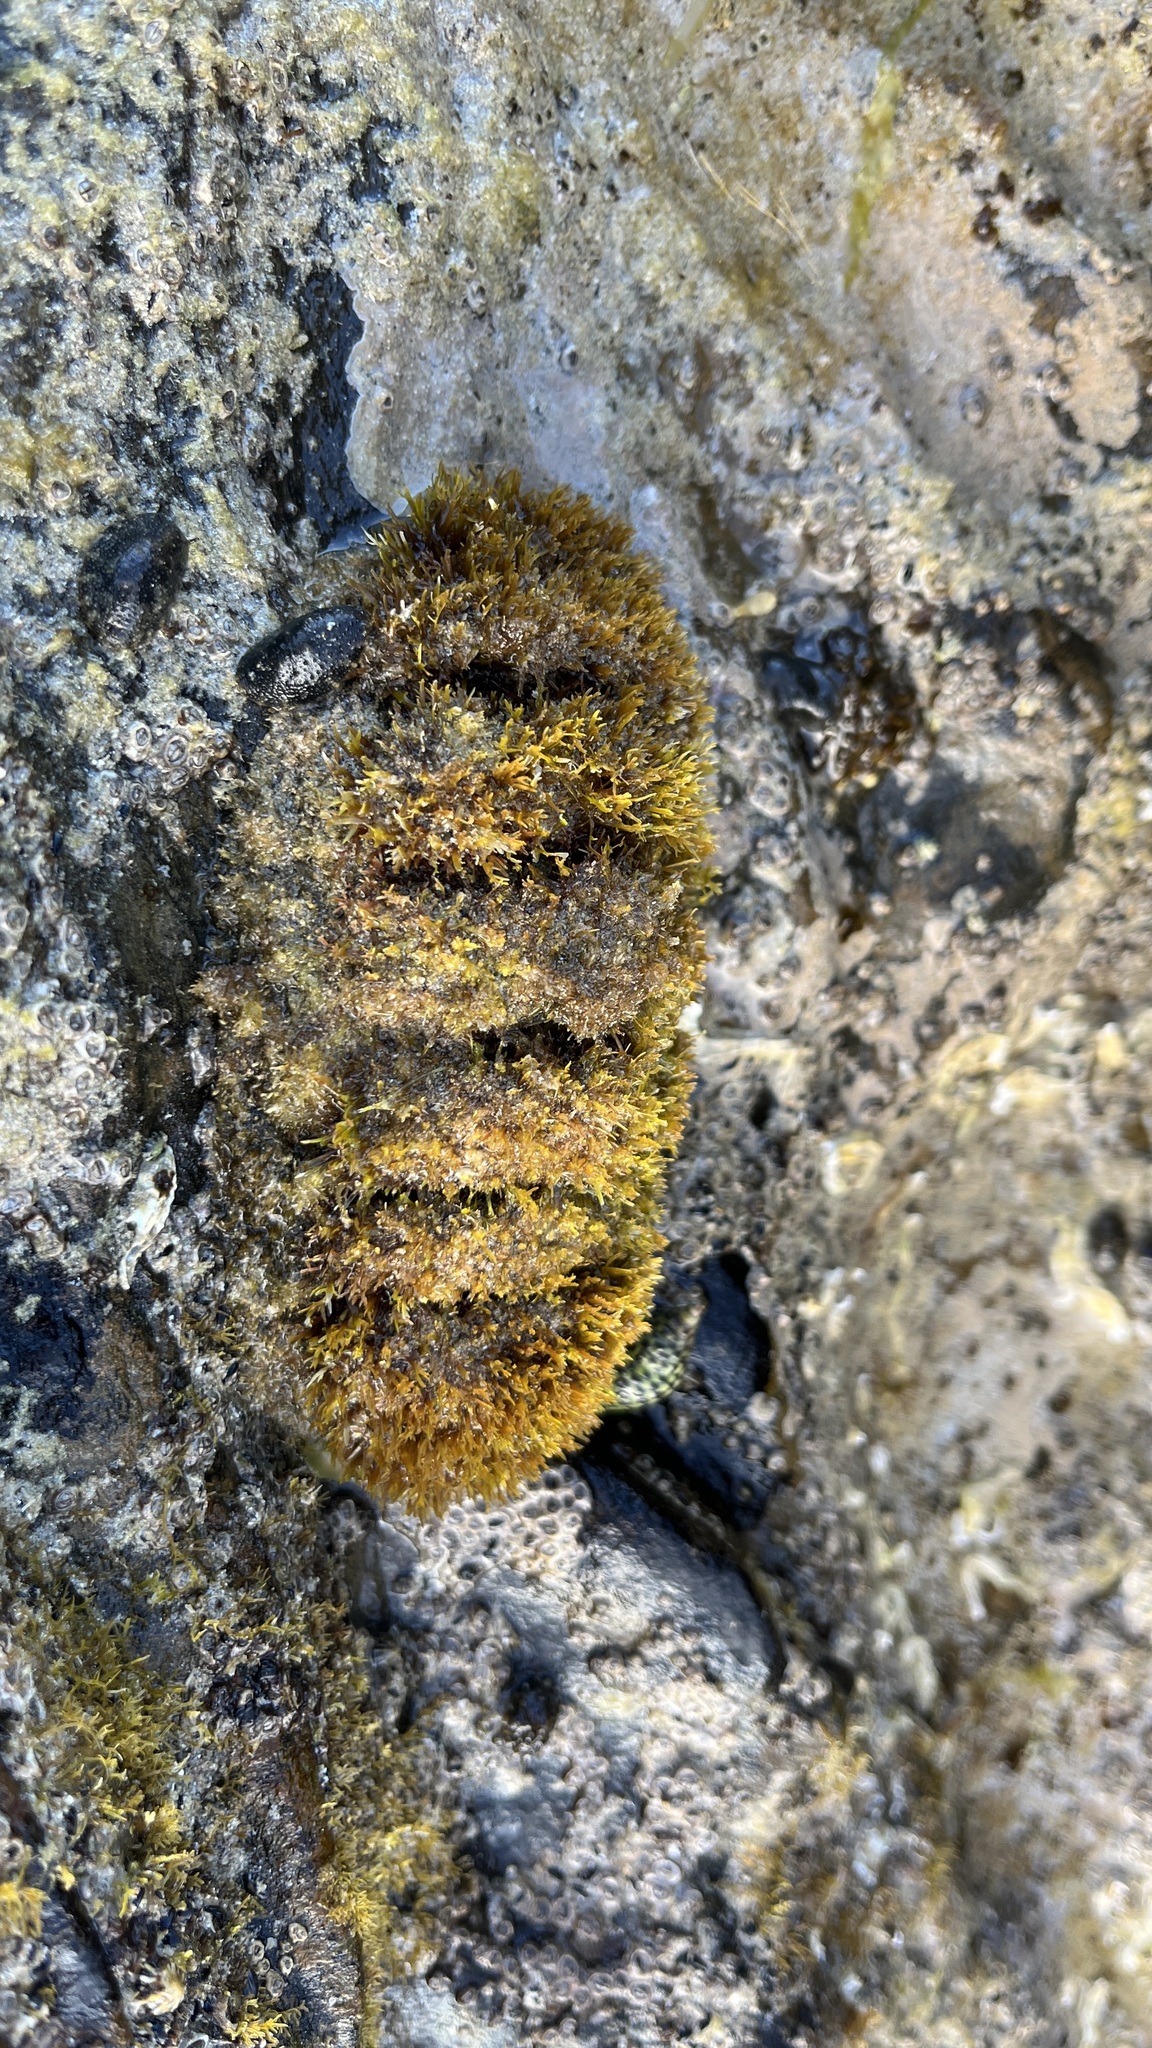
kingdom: Animalia
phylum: Mollusca
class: Polyplacophora
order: Chitonida
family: Mopaliidae
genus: Plaxiphora
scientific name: Plaxiphora albida
